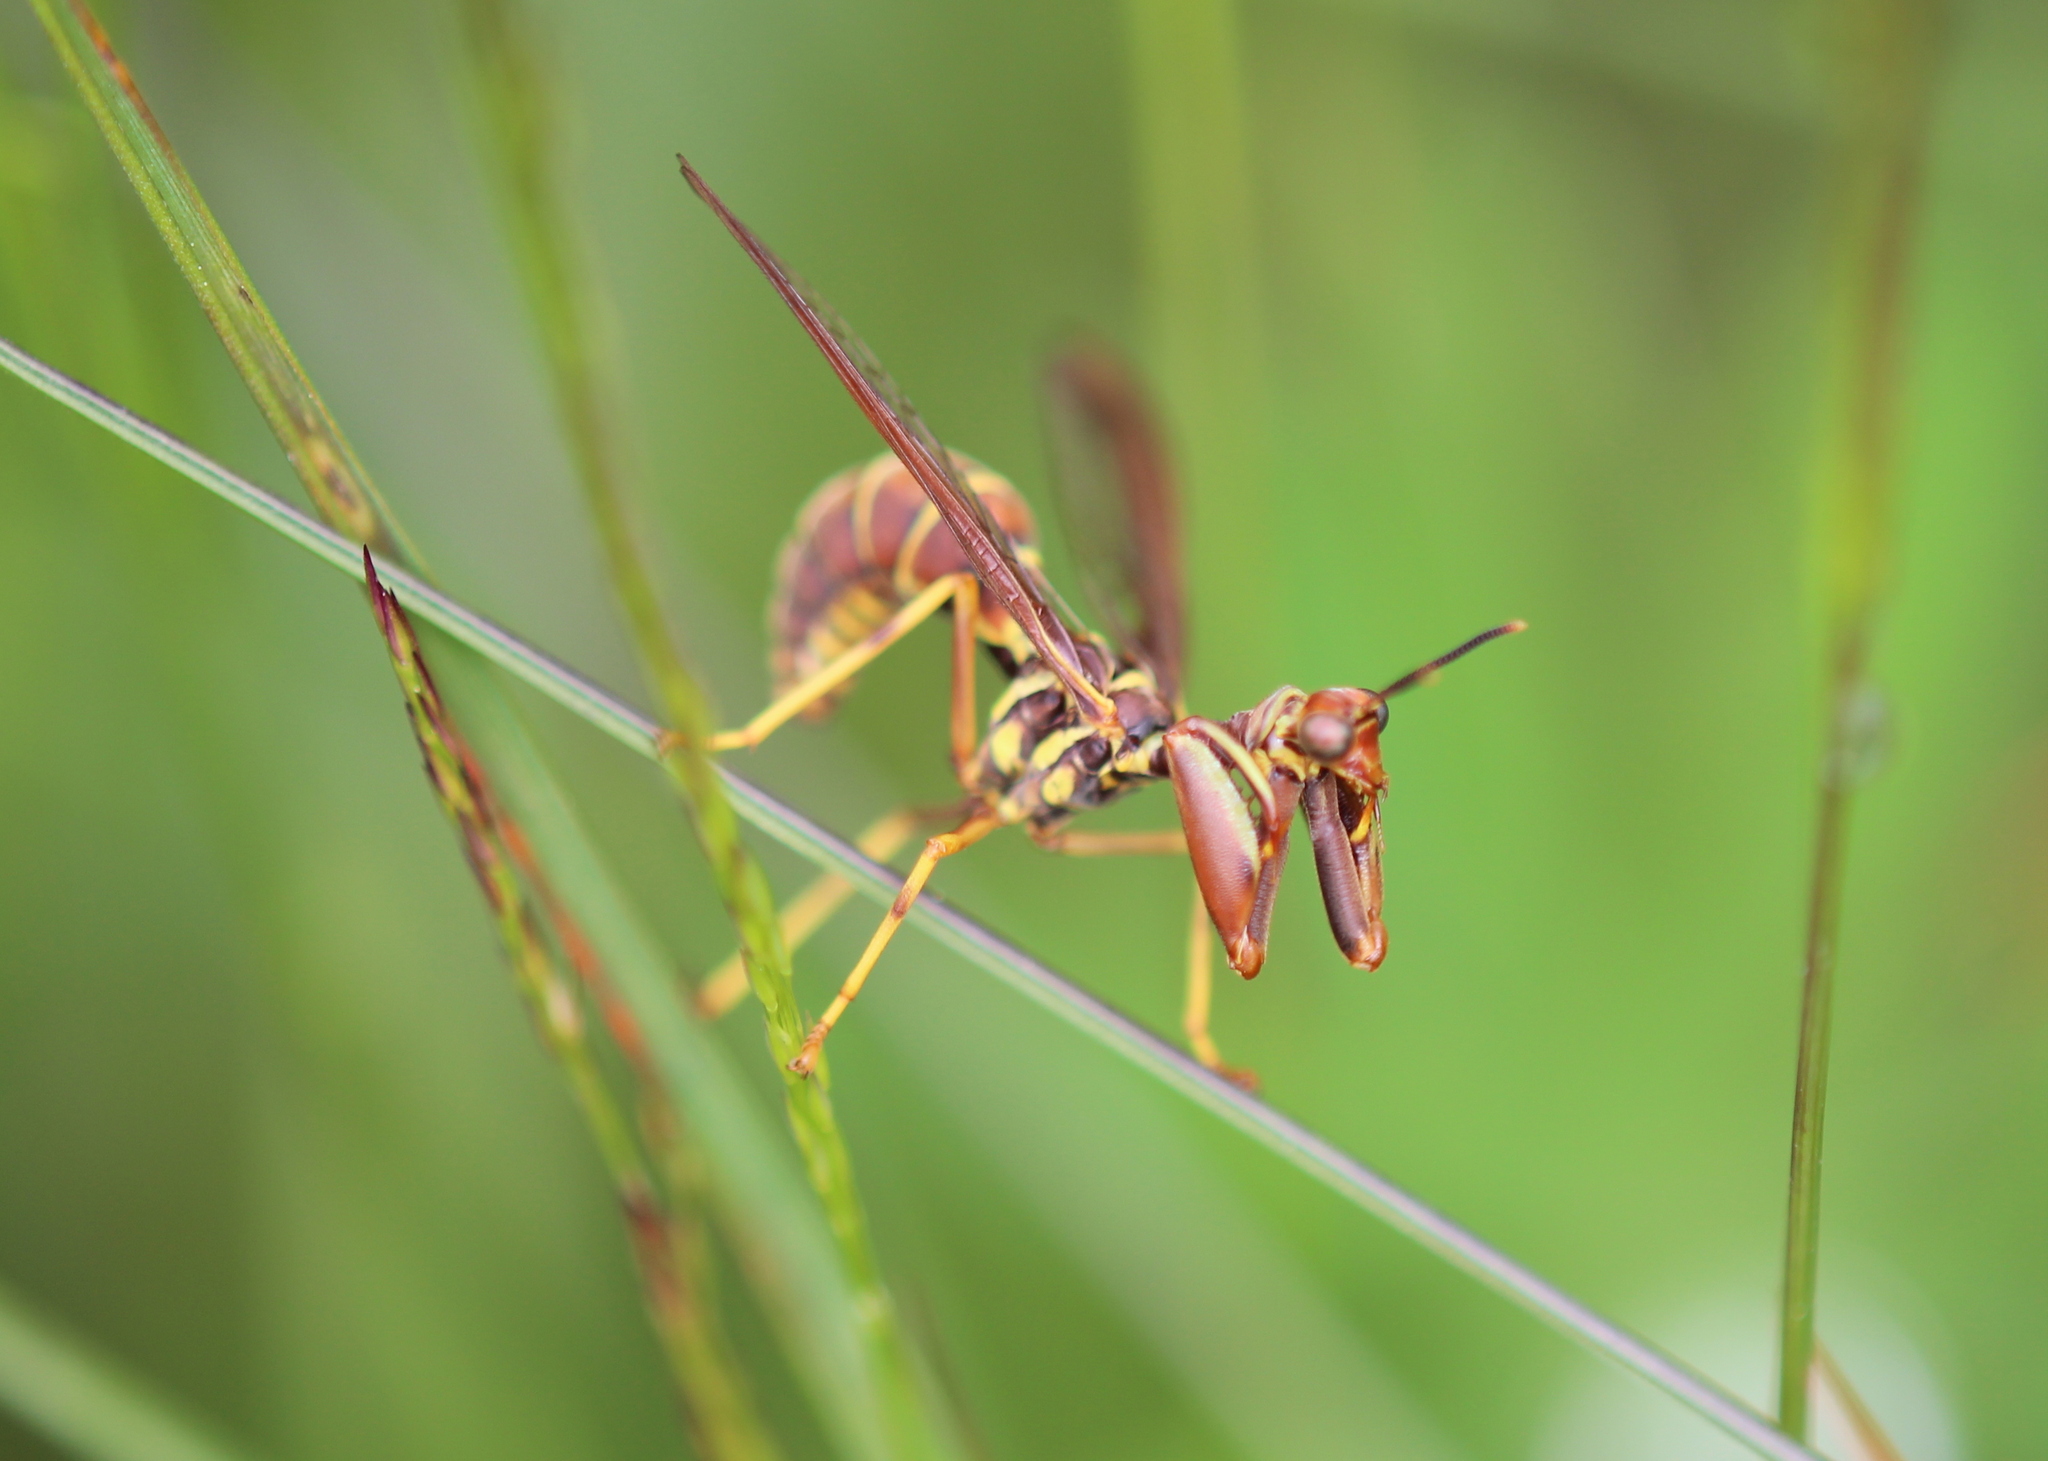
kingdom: Animalia
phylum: Arthropoda
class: Insecta
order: Neuroptera
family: Mantispidae
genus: Climaciella
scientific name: Climaciella brunnea
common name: Brown wasp mantidfly
